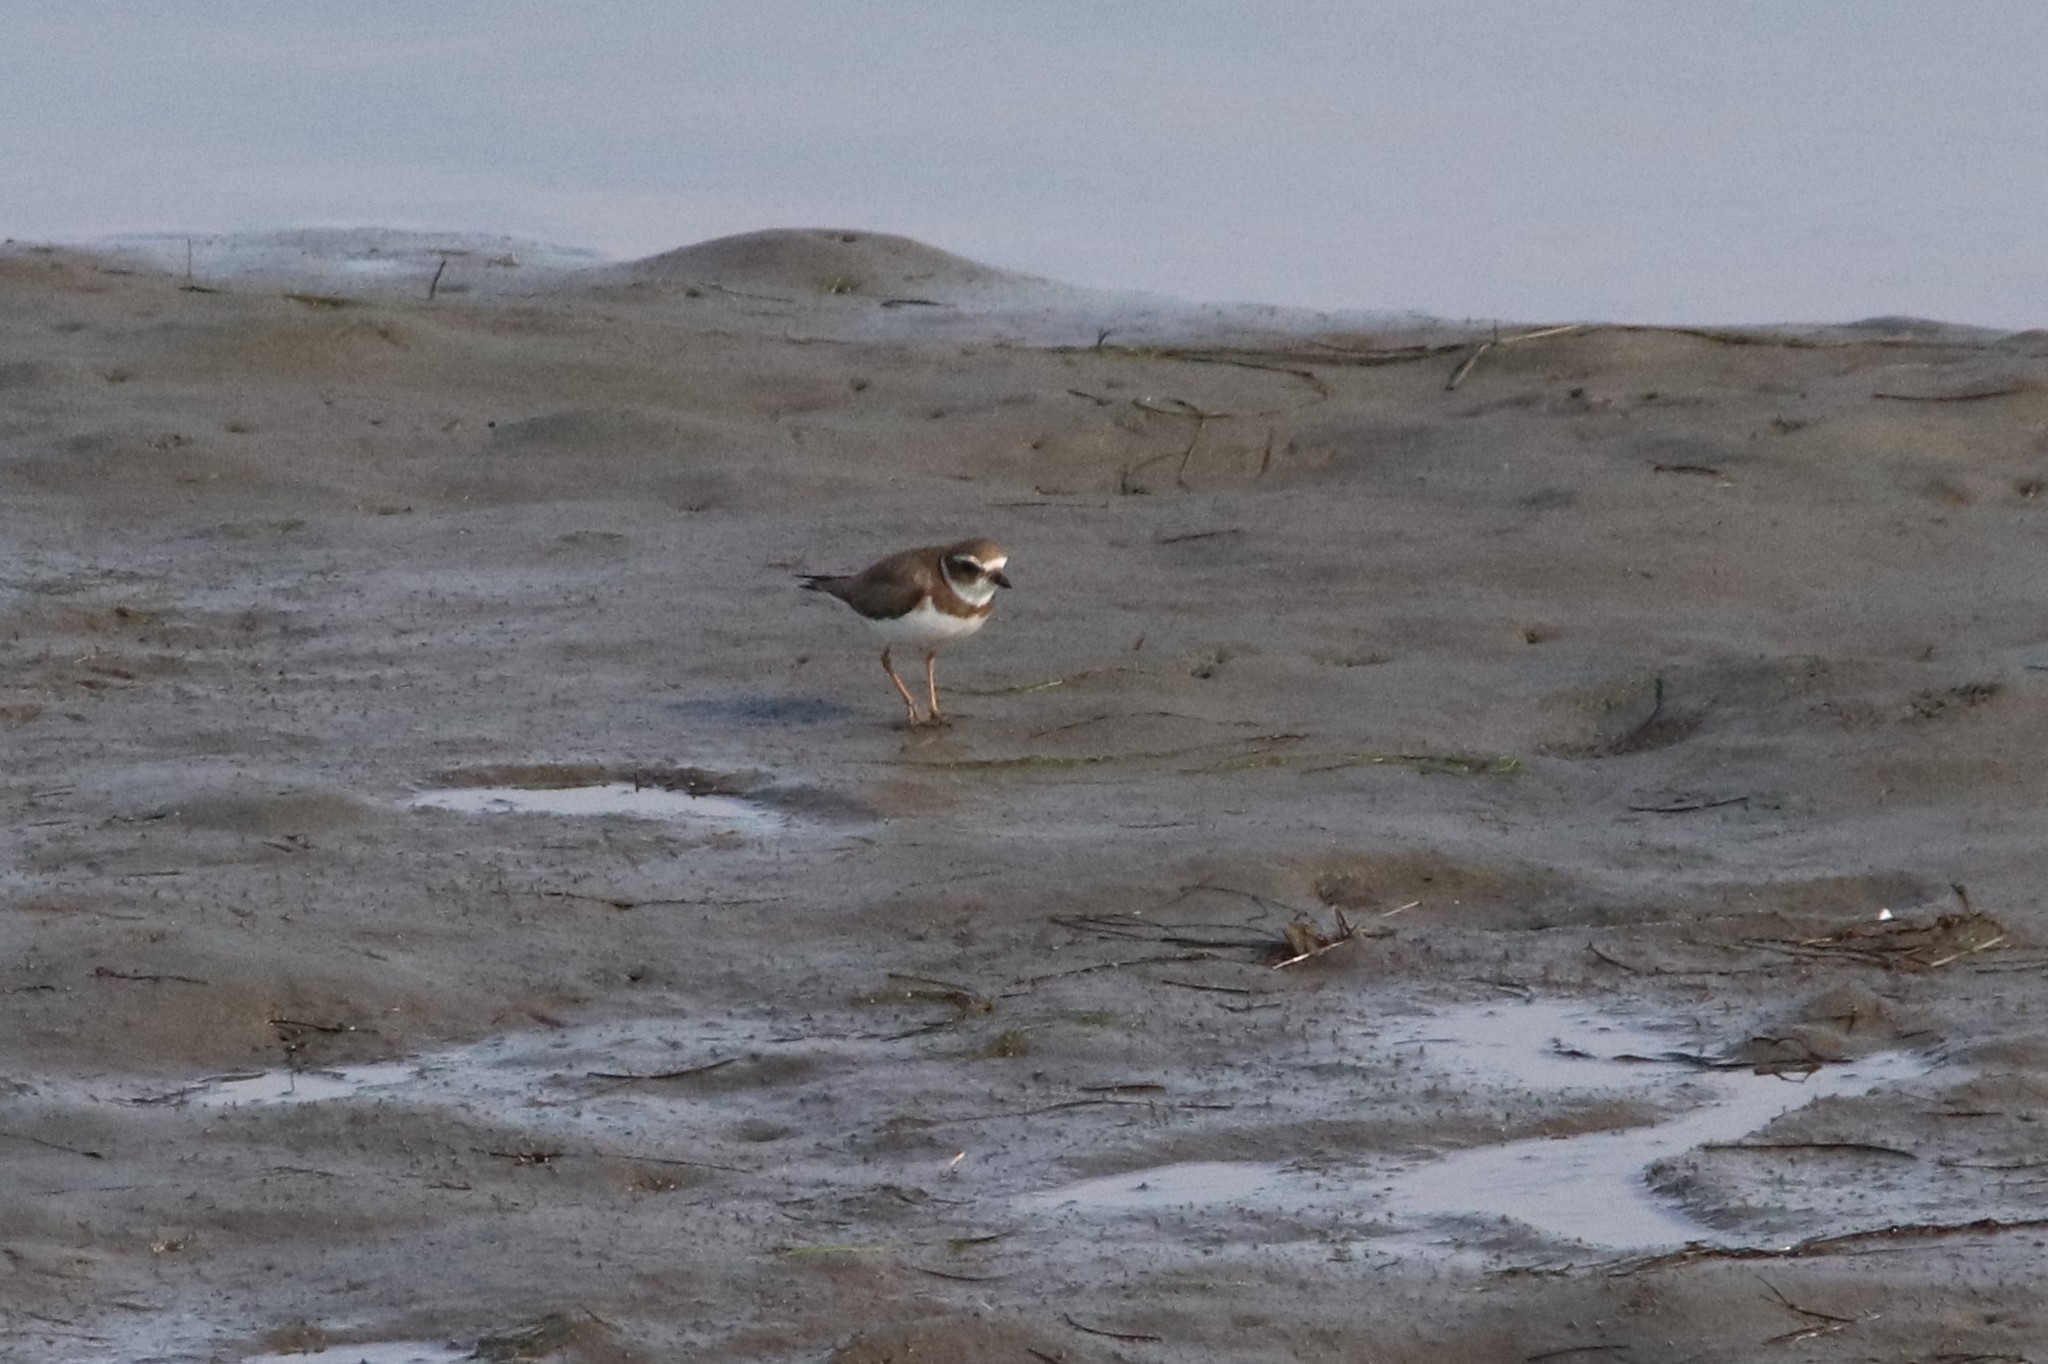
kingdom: Animalia
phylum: Chordata
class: Aves
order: Charadriiformes
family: Charadriidae
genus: Charadrius
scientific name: Charadrius semipalmatus
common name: Semipalmated plover
